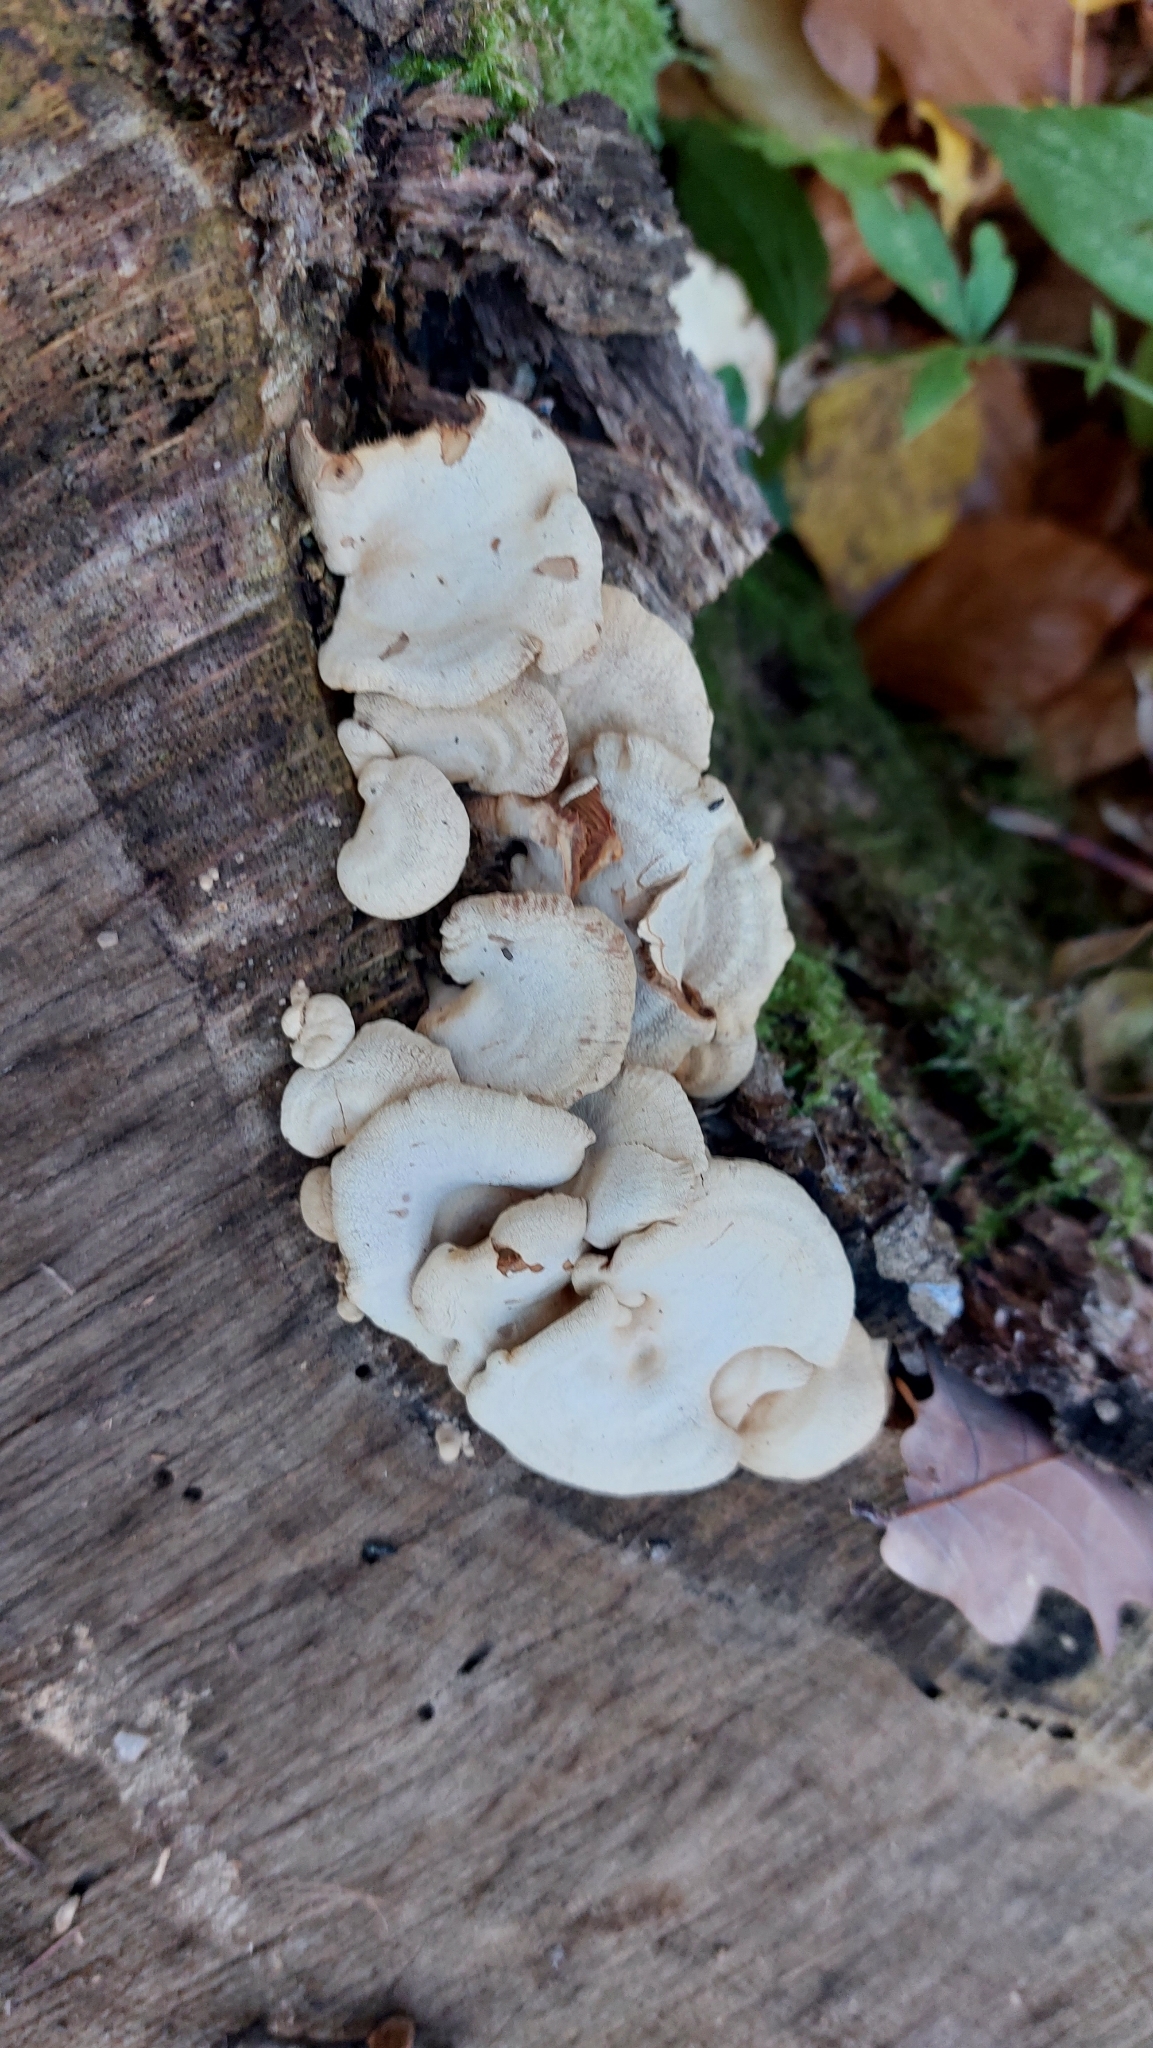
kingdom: Fungi
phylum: Basidiomycota
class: Agaricomycetes
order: Agaricales
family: Mycenaceae
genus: Panellus
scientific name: Panellus stipticus
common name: Bitter oysterling
